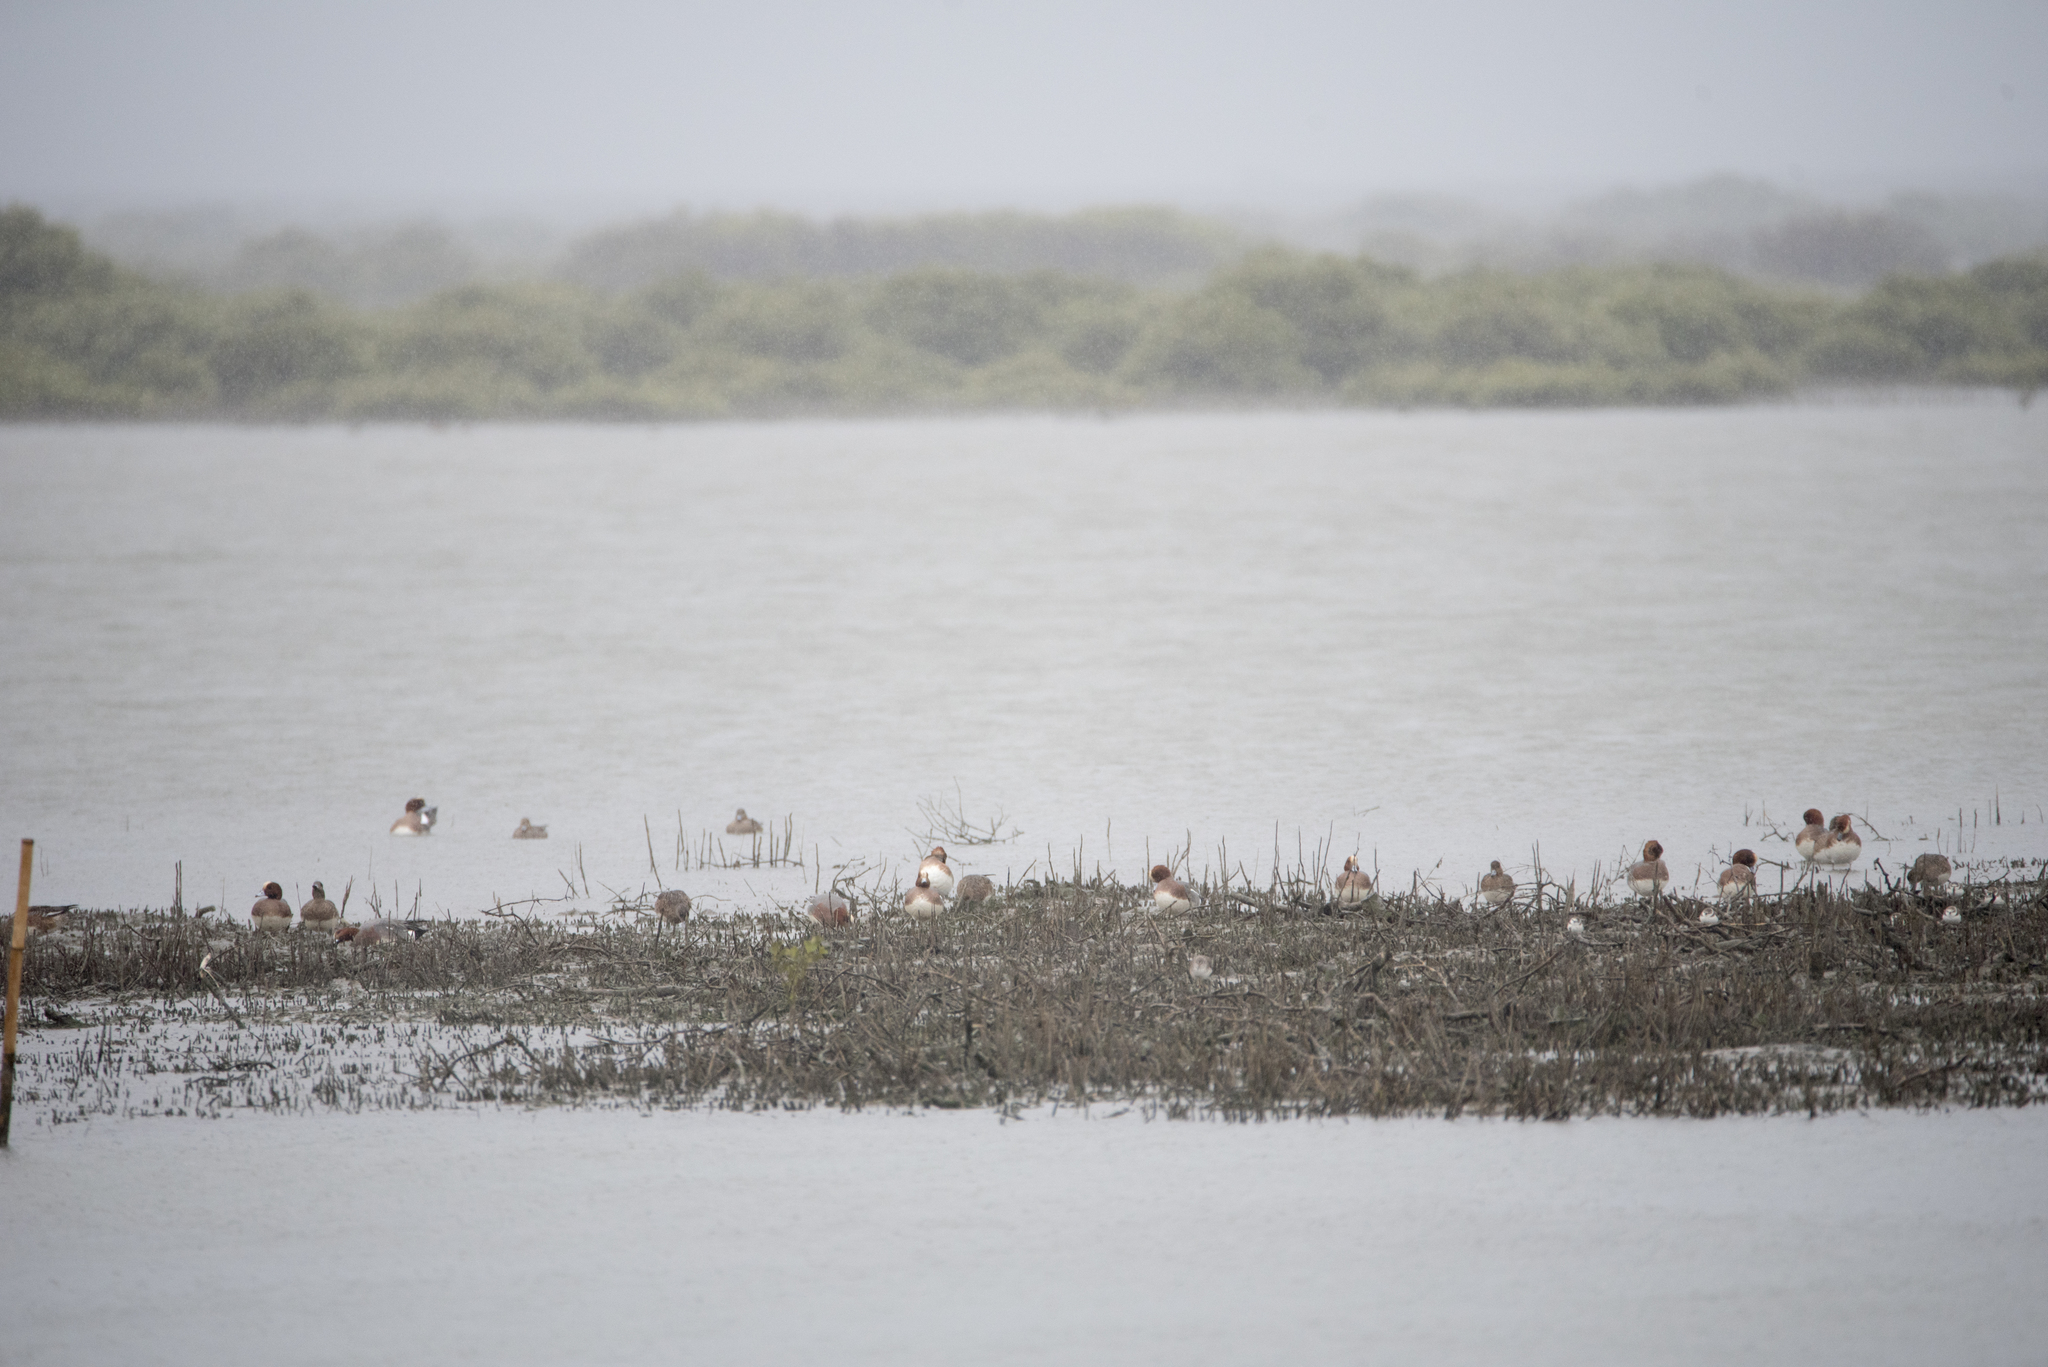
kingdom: Animalia
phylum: Chordata
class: Aves
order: Anseriformes
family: Anatidae
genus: Mareca
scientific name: Mareca penelope
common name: Eurasian wigeon
